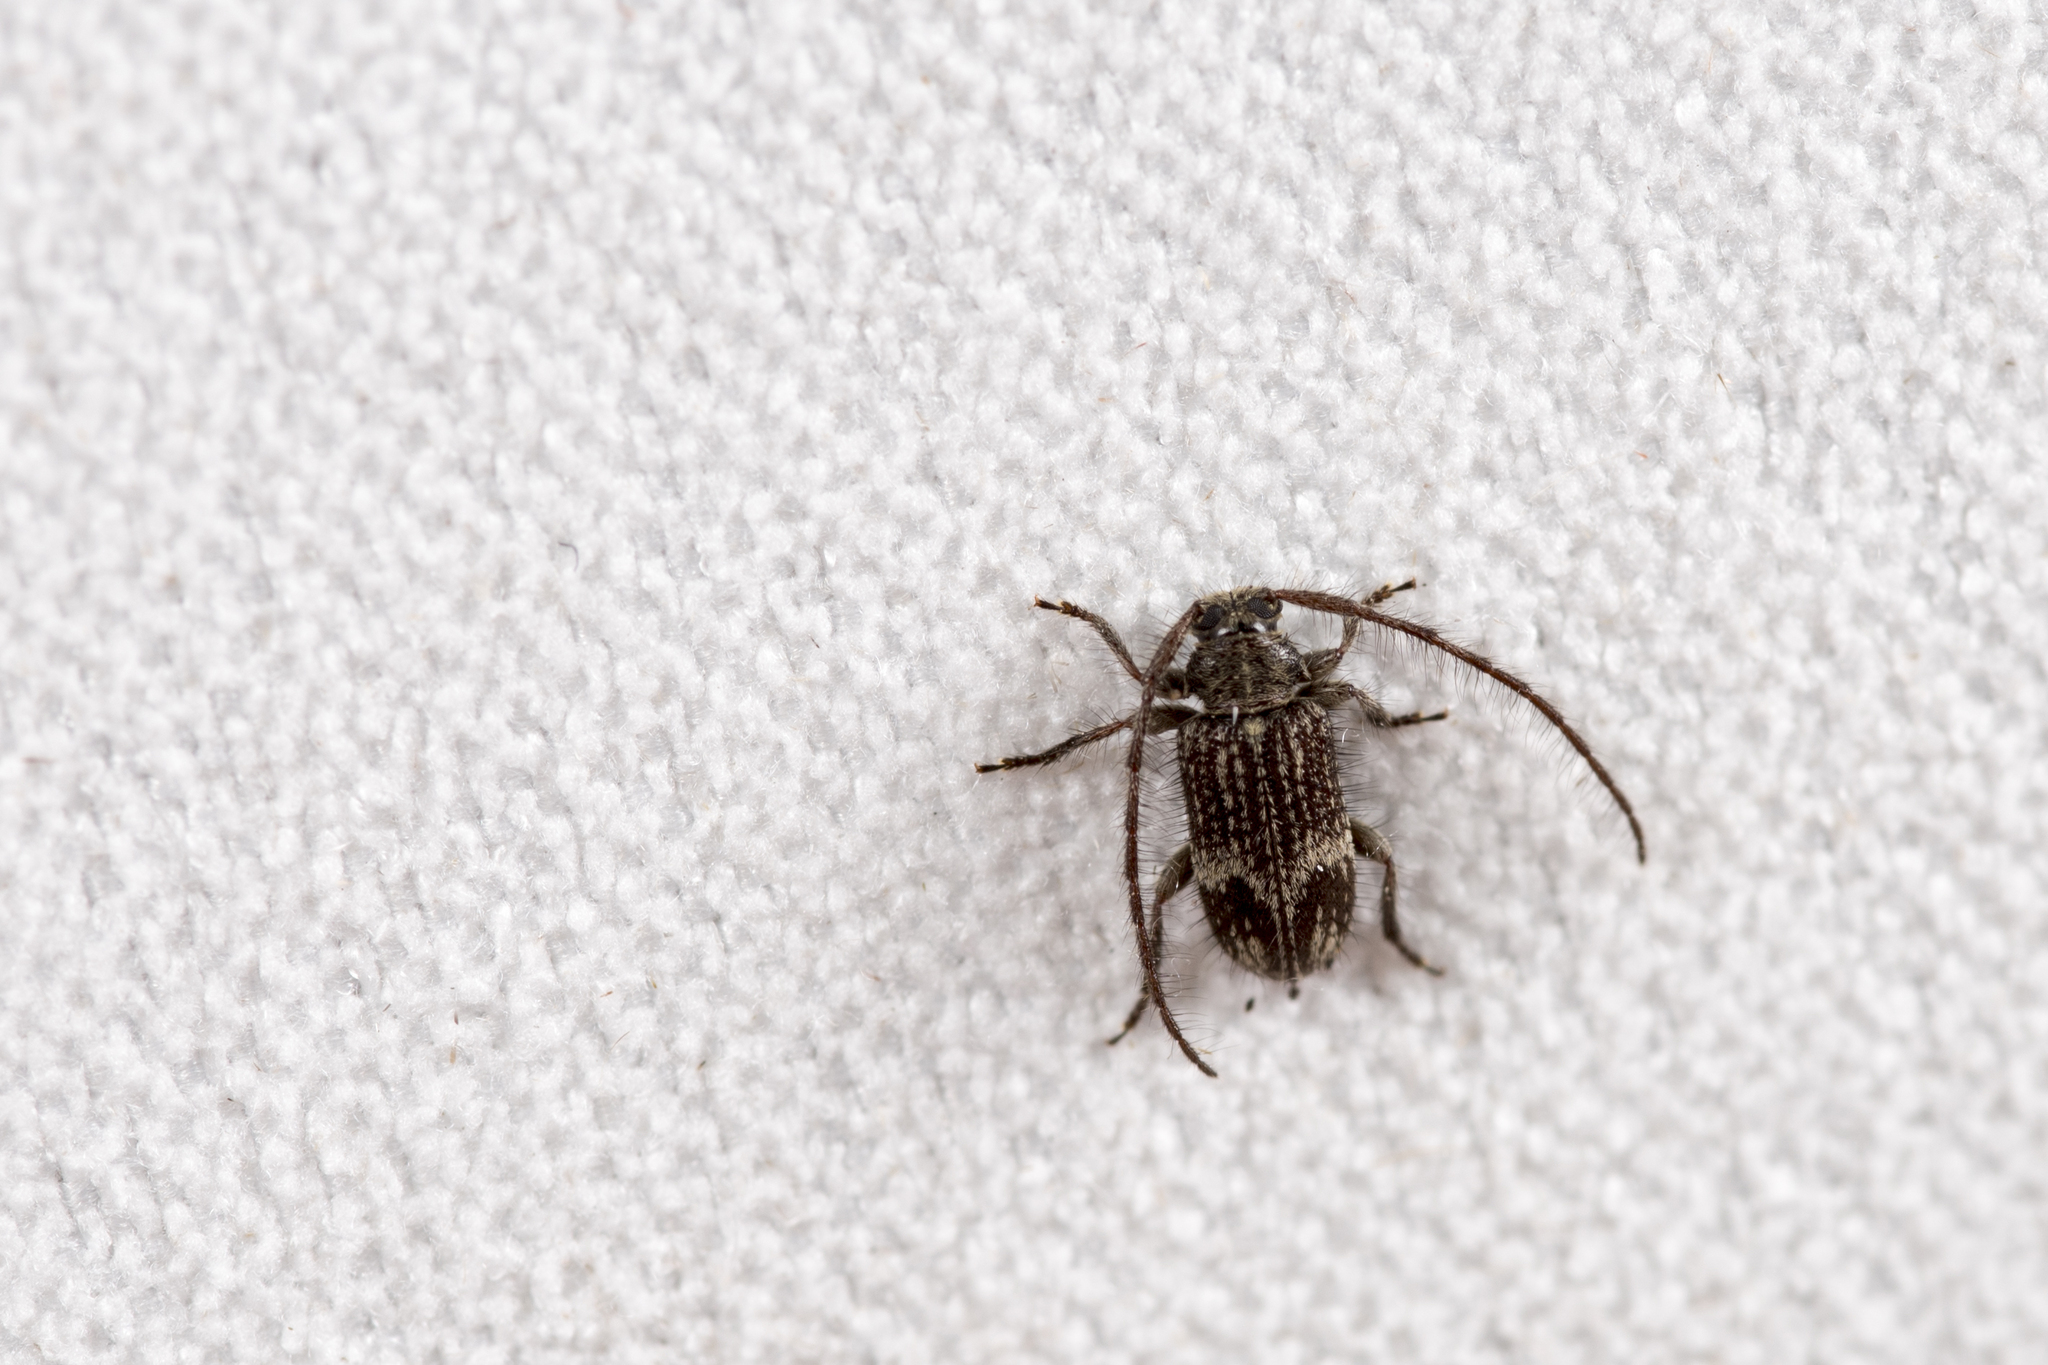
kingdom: Animalia
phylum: Arthropoda
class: Insecta
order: Coleoptera
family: Cerambycidae
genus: Exocentrus
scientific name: Exocentrus seriatomaculatus
